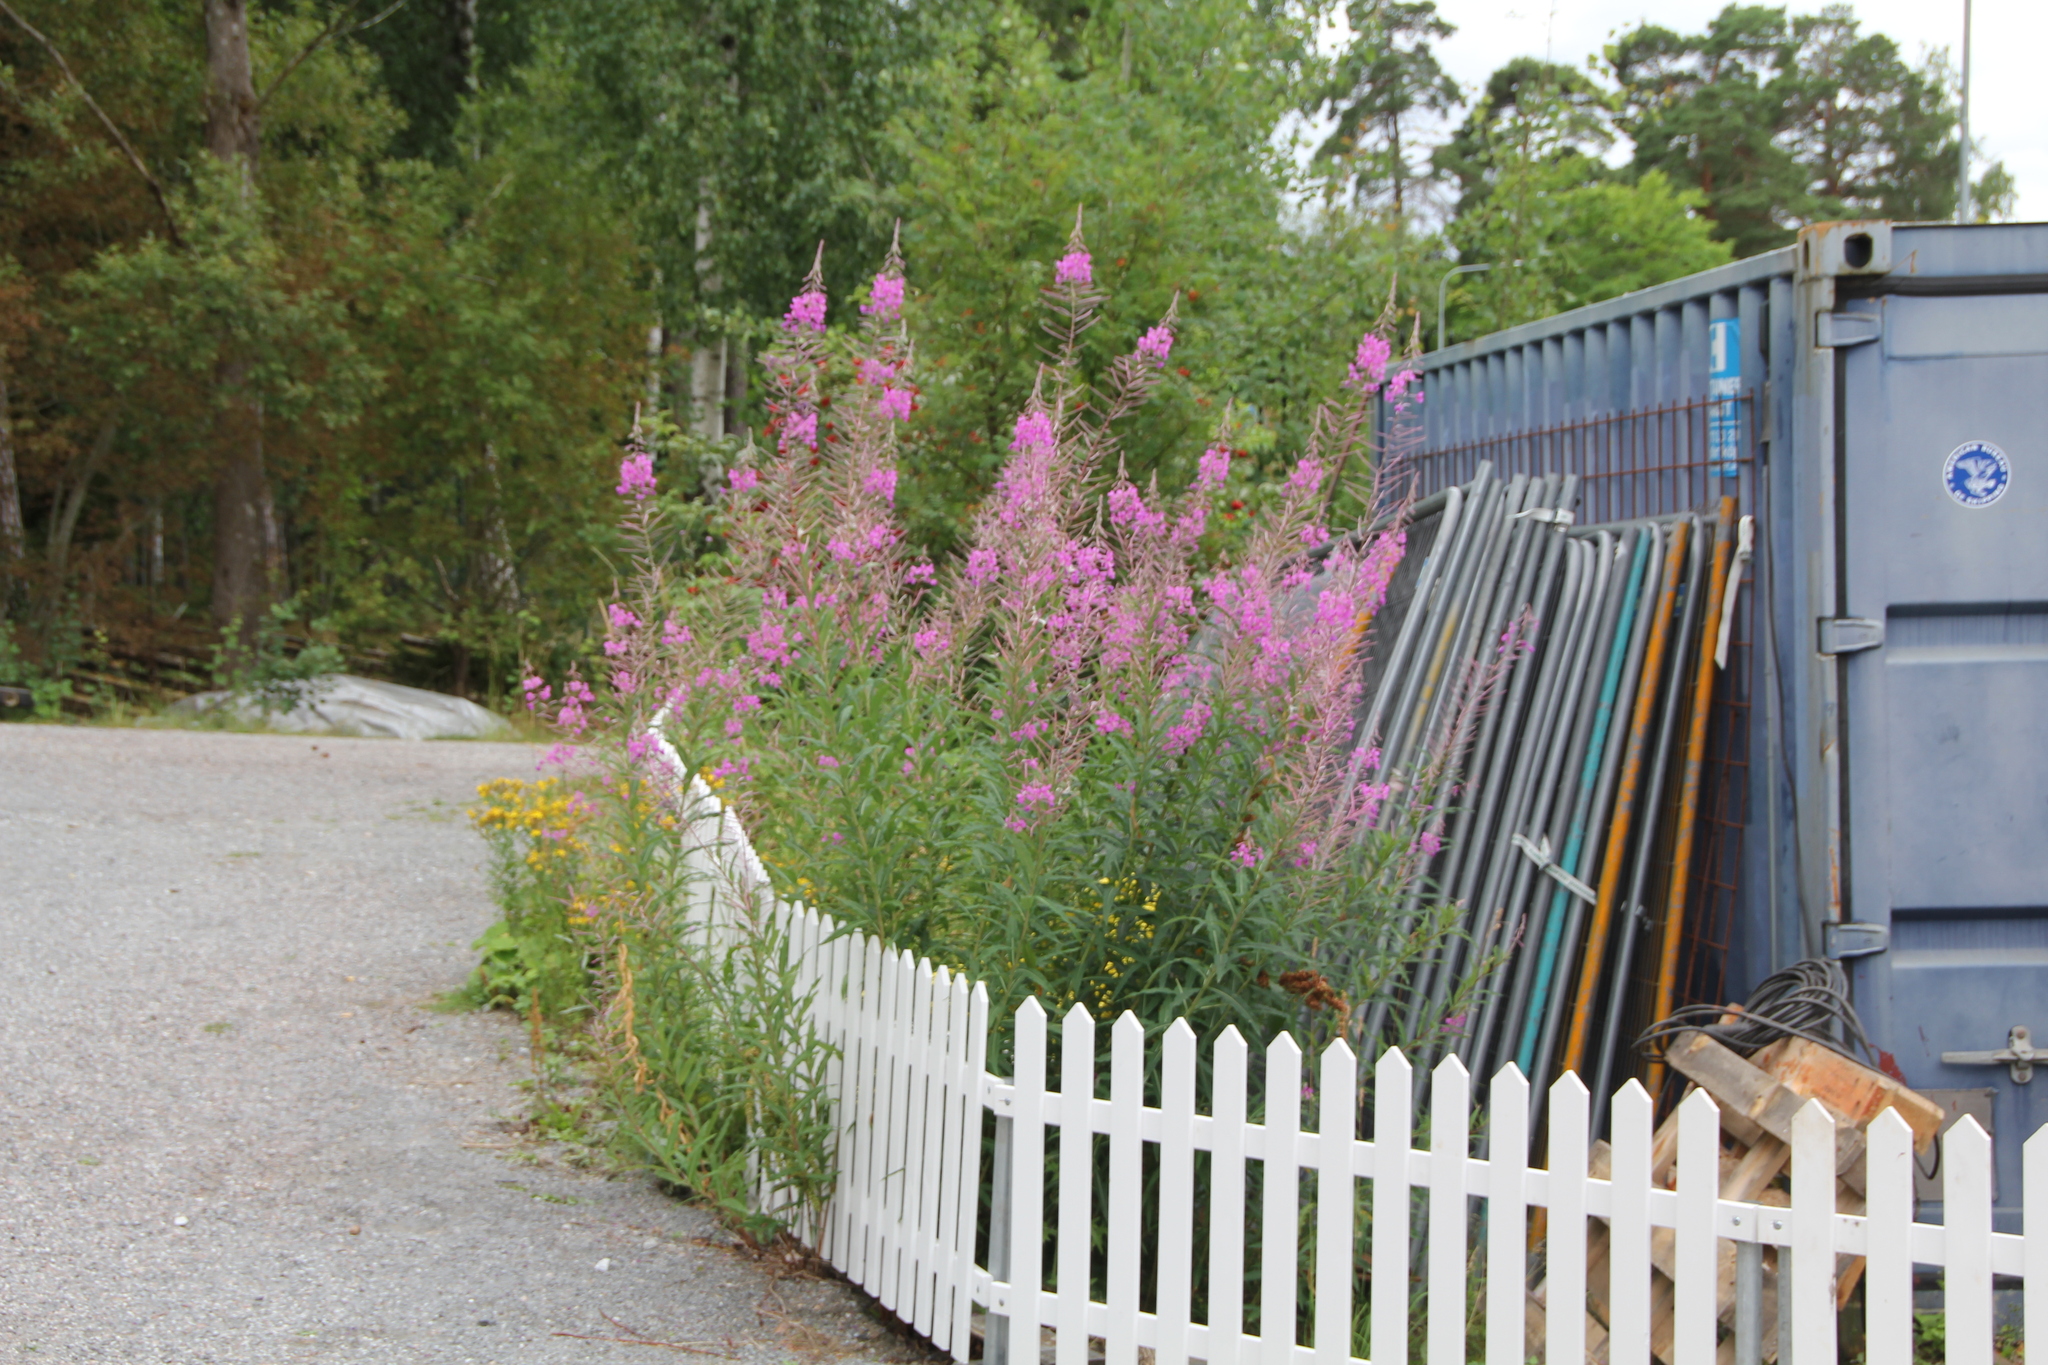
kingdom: Plantae
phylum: Tracheophyta
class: Magnoliopsida
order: Myrtales
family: Onagraceae
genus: Chamaenerion
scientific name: Chamaenerion angustifolium
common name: Fireweed
